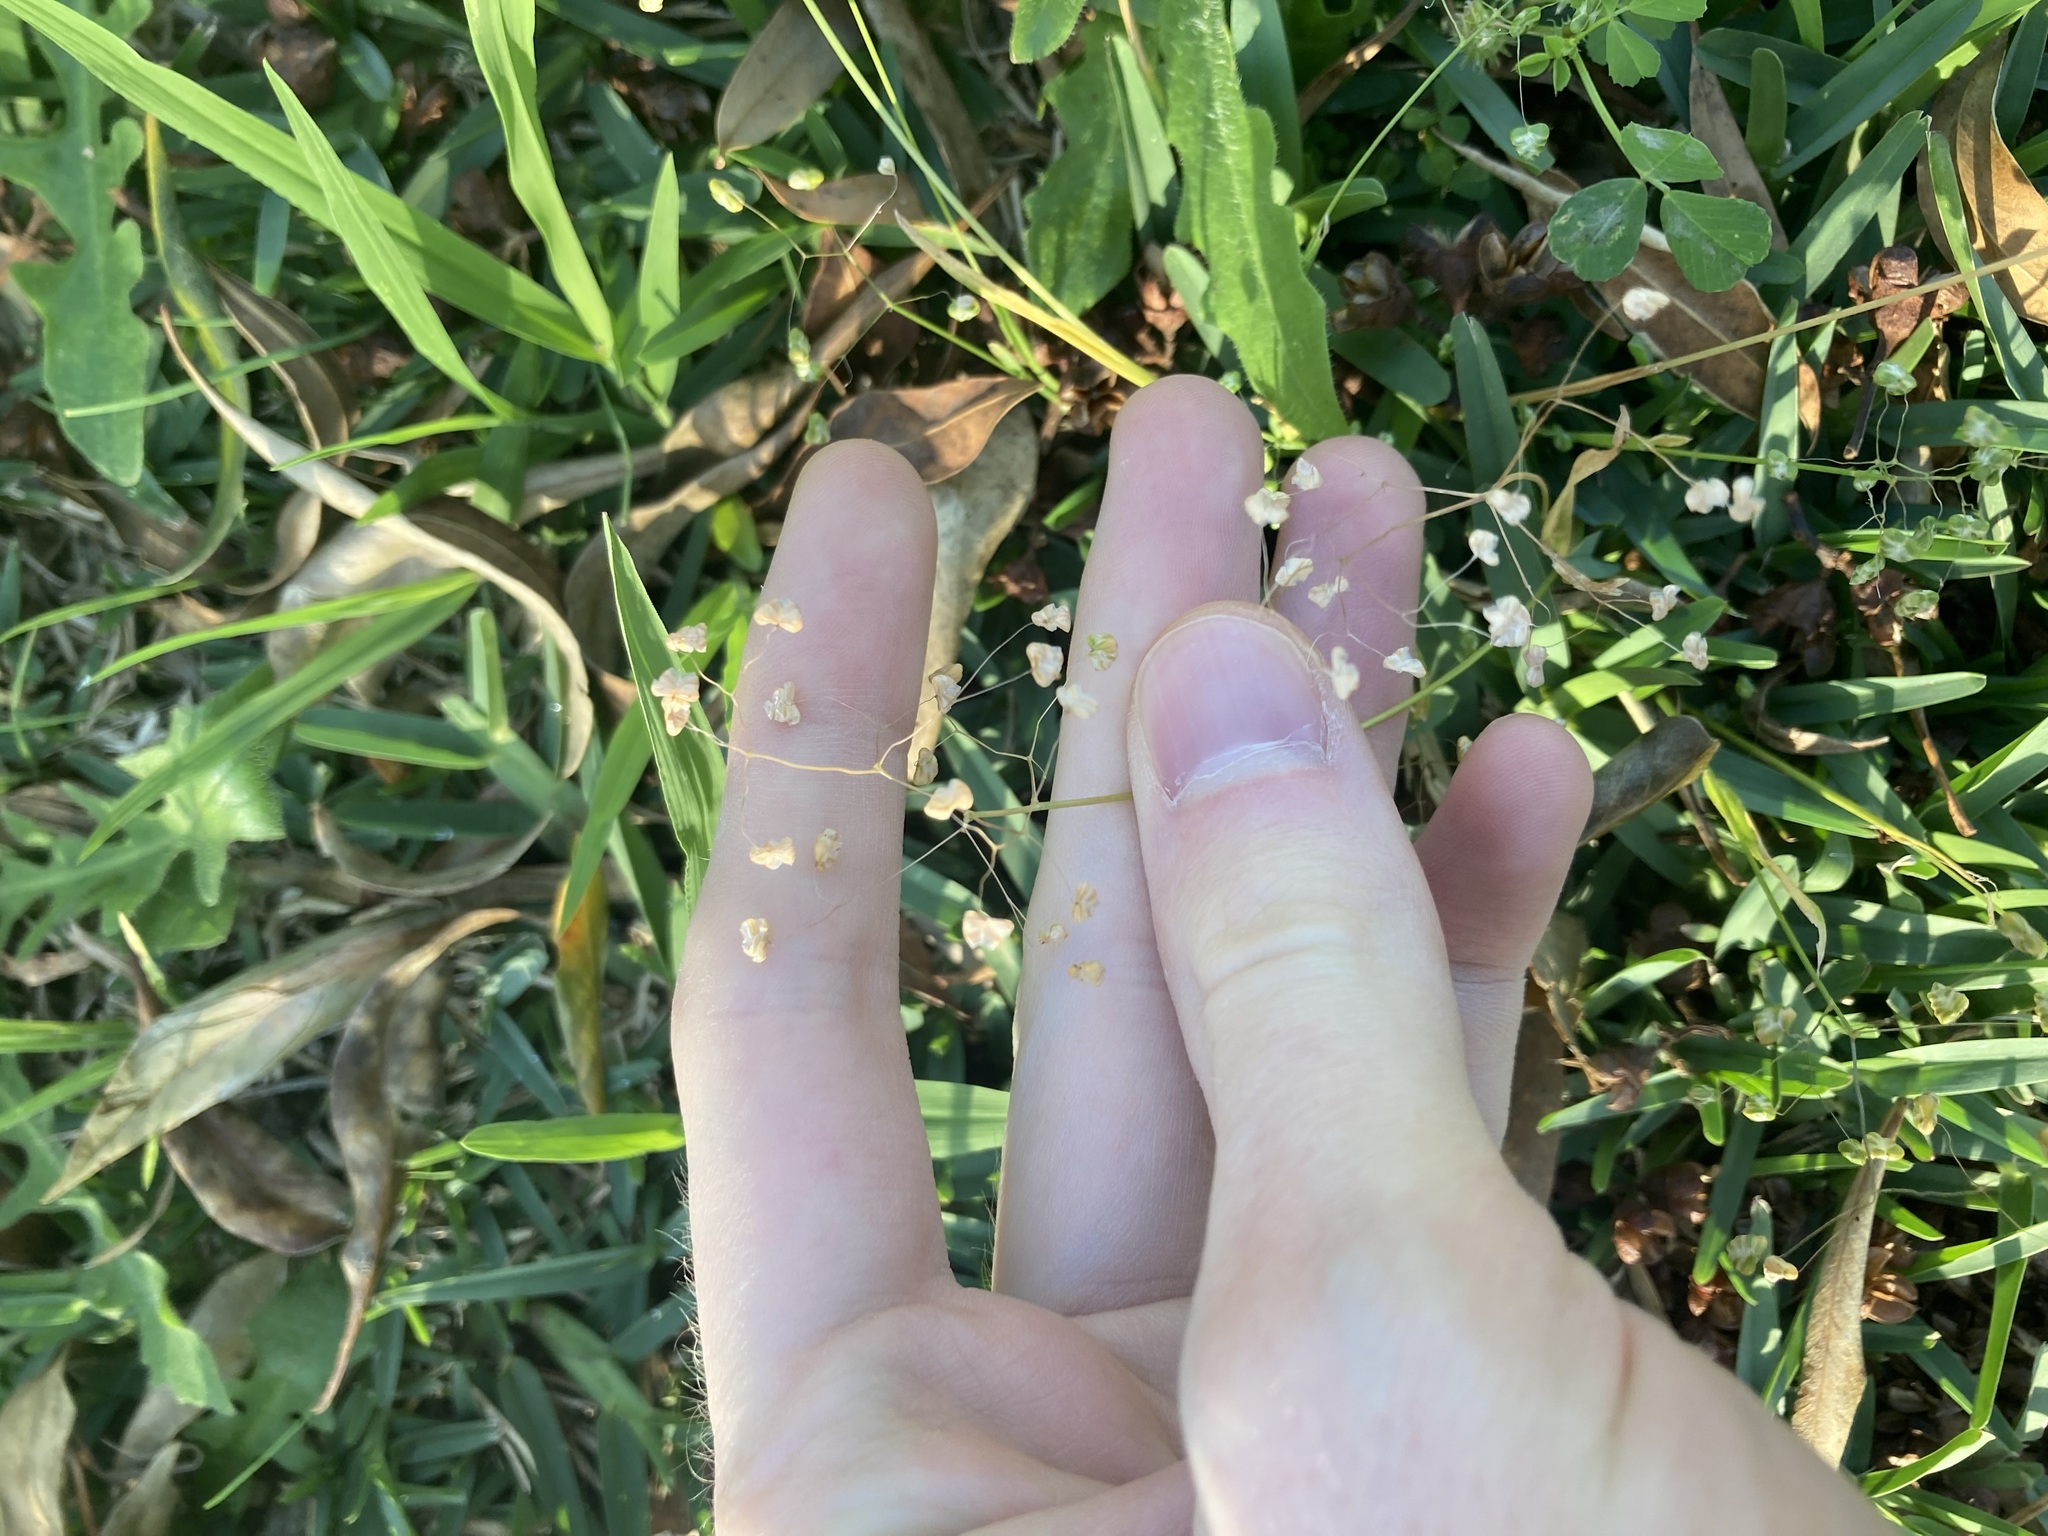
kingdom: Plantae
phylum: Tracheophyta
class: Liliopsida
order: Poales
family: Poaceae
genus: Briza
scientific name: Briza minor
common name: Lesser quaking-grass
